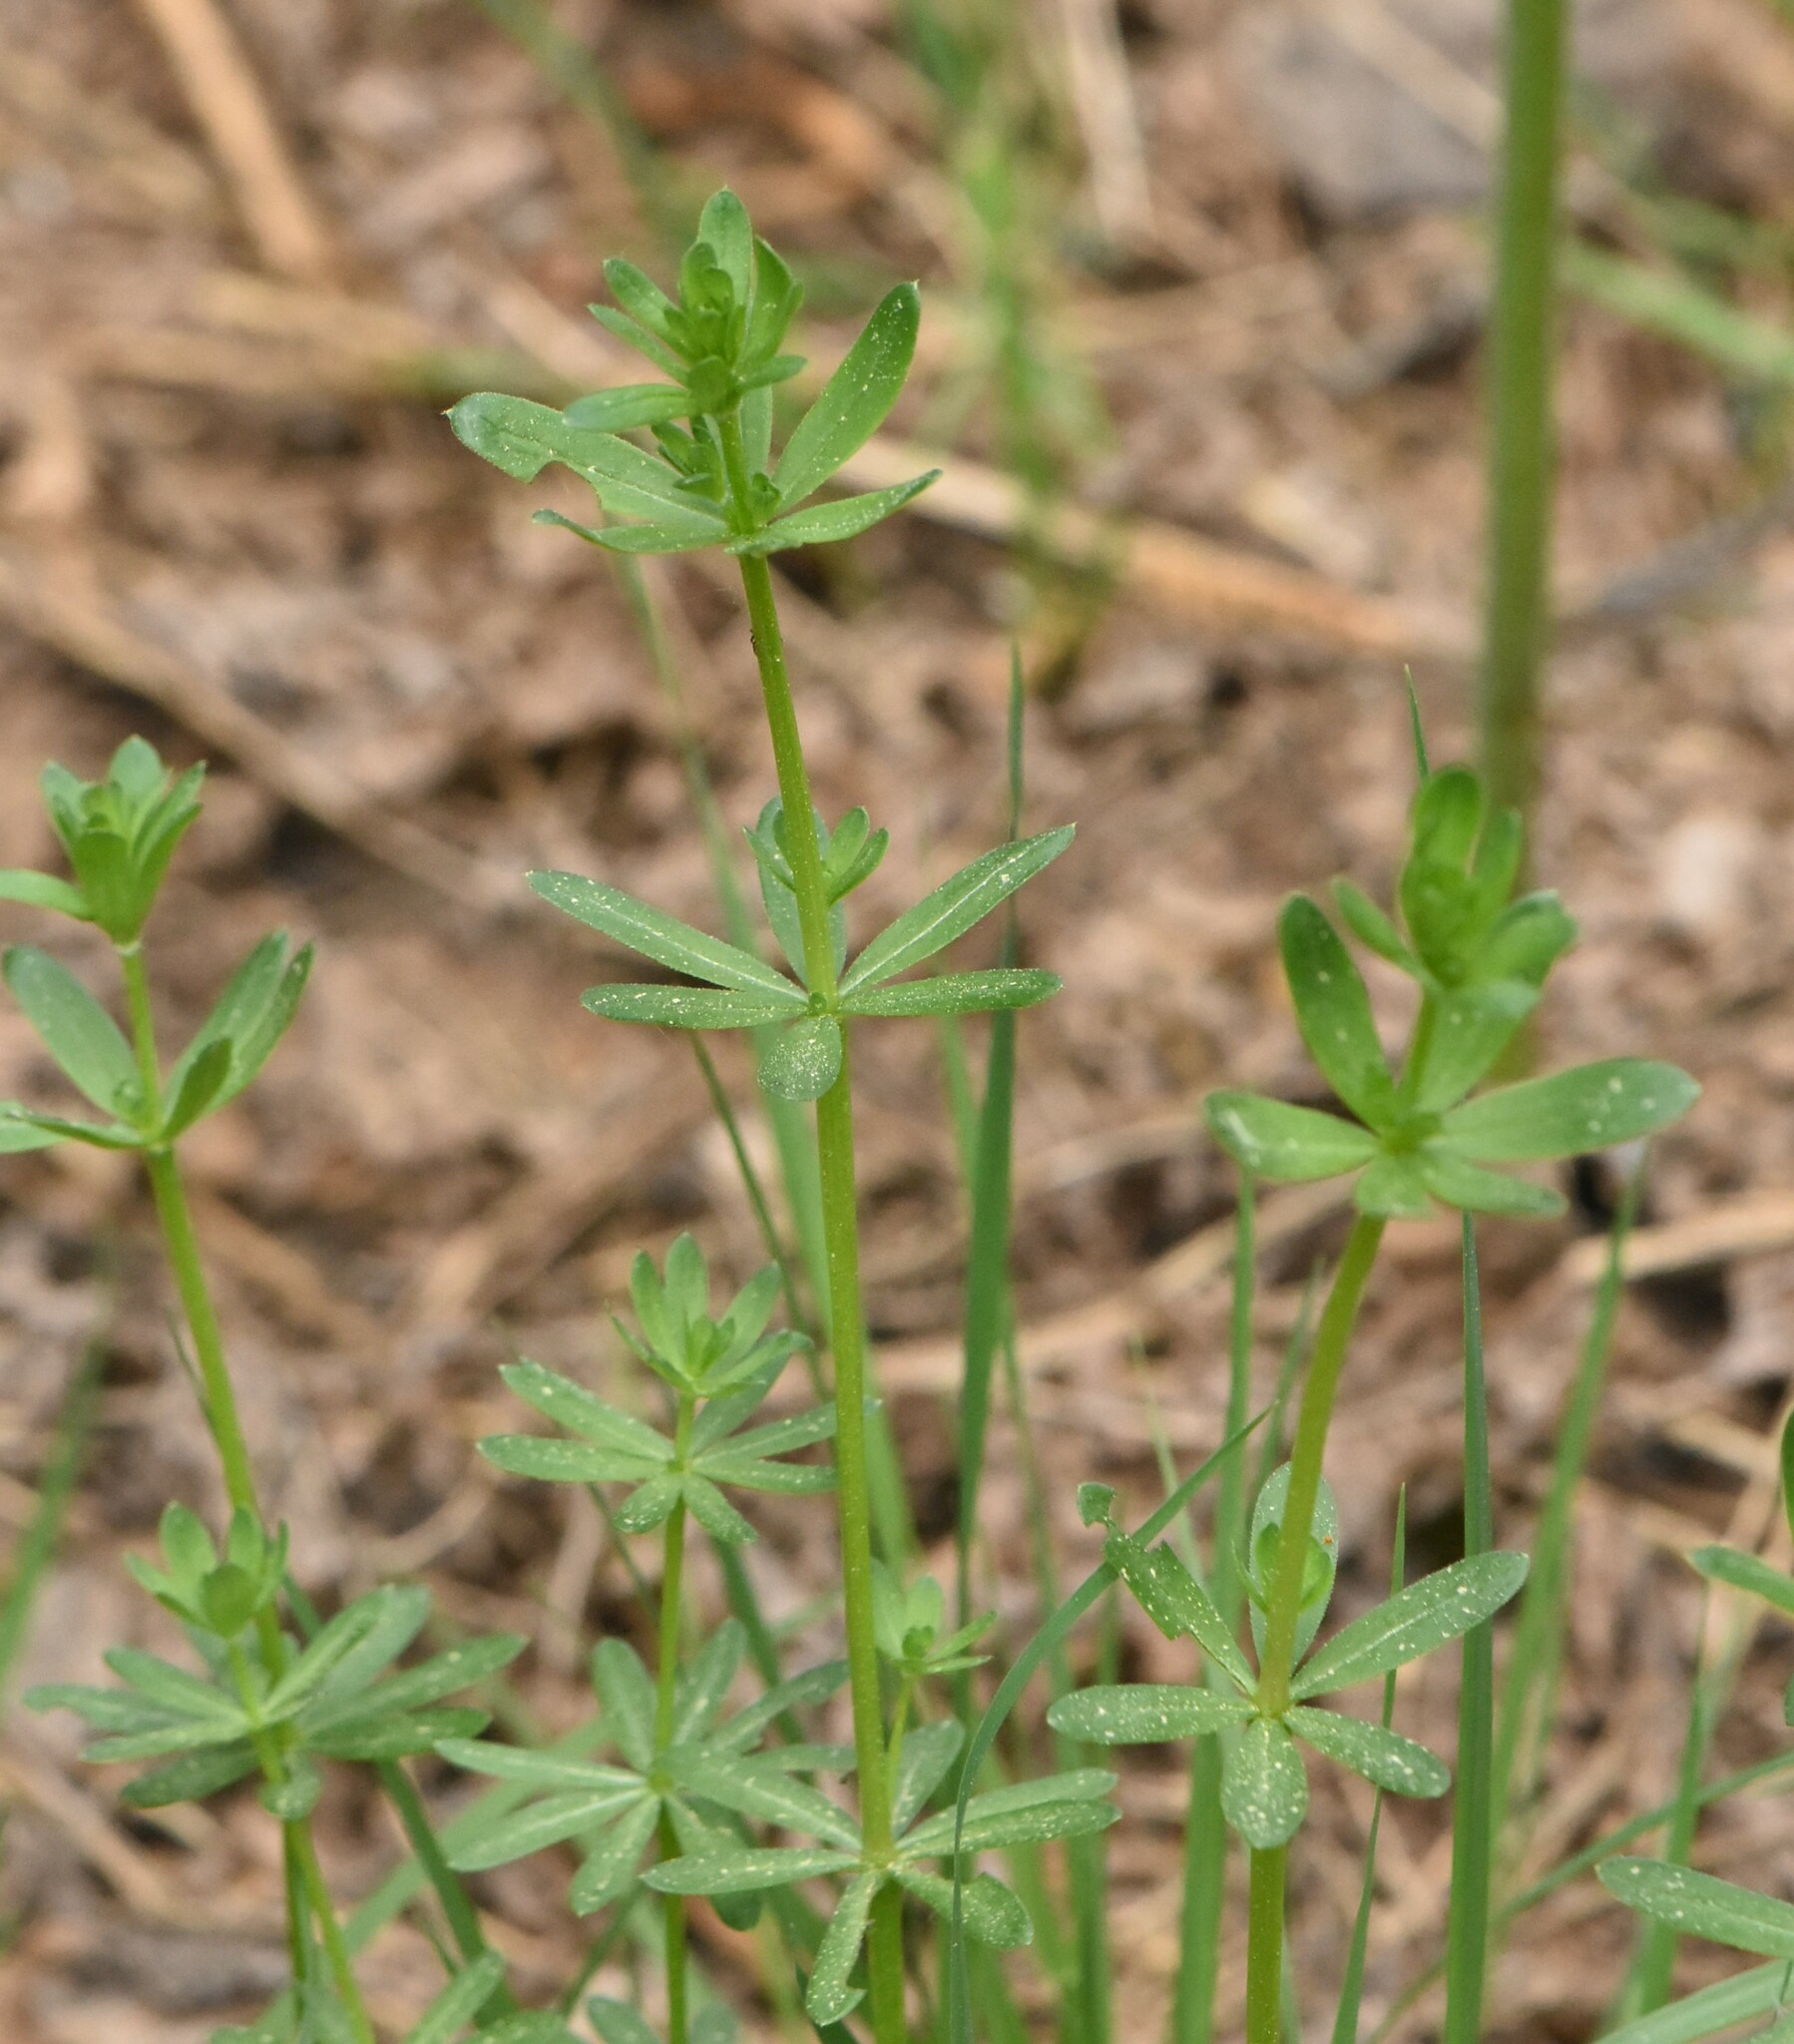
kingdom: Plantae
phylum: Tracheophyta
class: Magnoliopsida
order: Gentianales
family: Rubiaceae
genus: Galium
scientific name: Galium mollugo
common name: Hedge bedstraw
